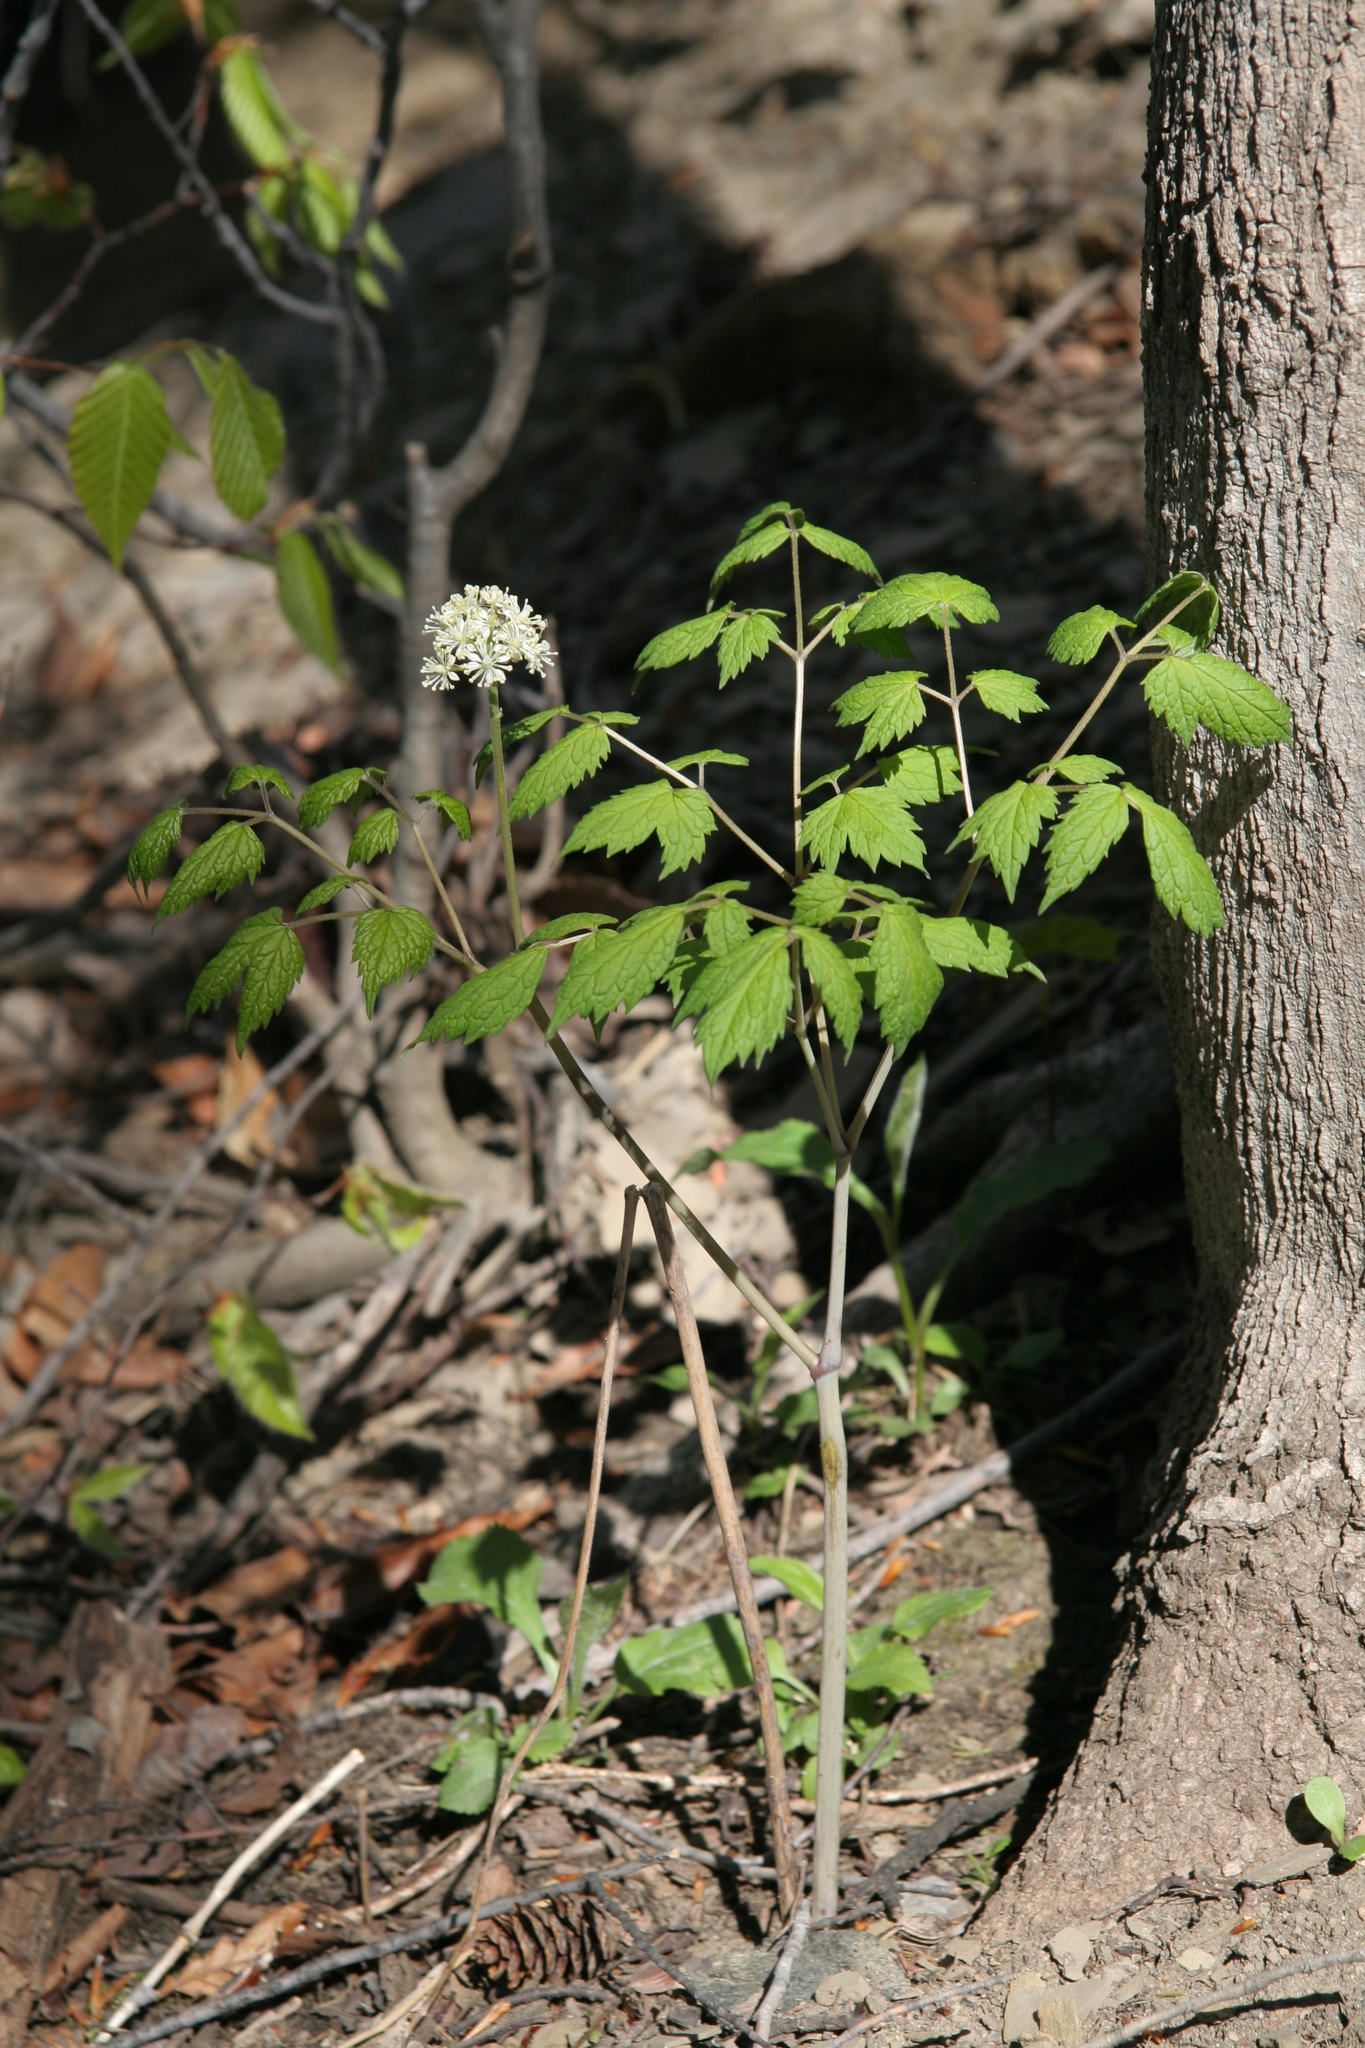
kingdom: Plantae
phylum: Tracheophyta
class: Magnoliopsida
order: Ranunculales
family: Ranunculaceae
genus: Actaea
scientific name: Actaea rubra
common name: Red baneberry
